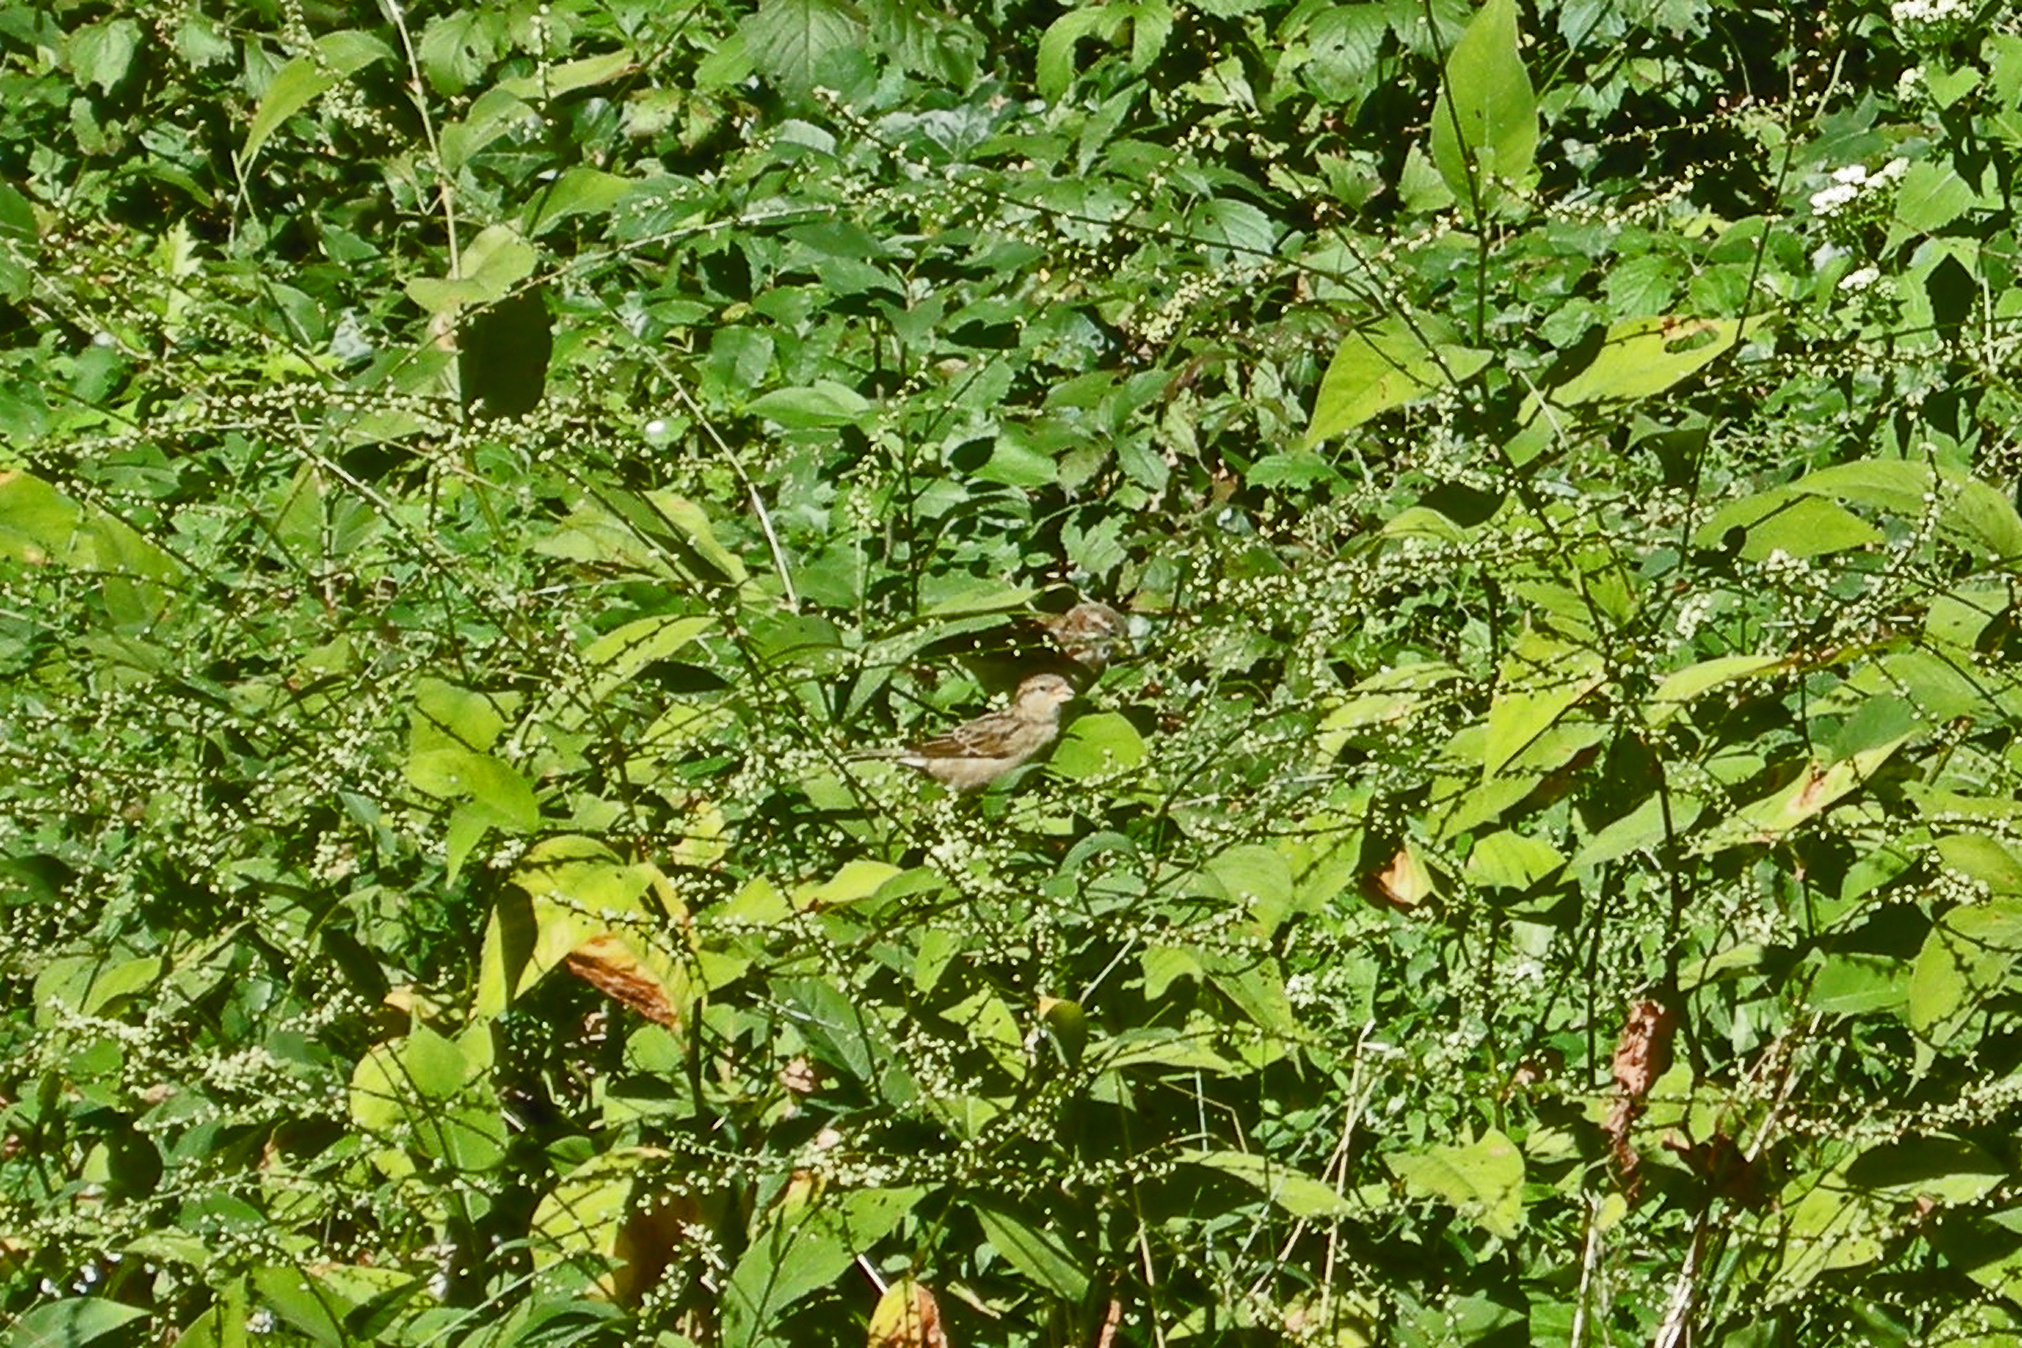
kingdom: Animalia
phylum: Chordata
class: Aves
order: Passeriformes
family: Passeridae
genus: Passer
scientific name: Passer domesticus
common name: House sparrow
